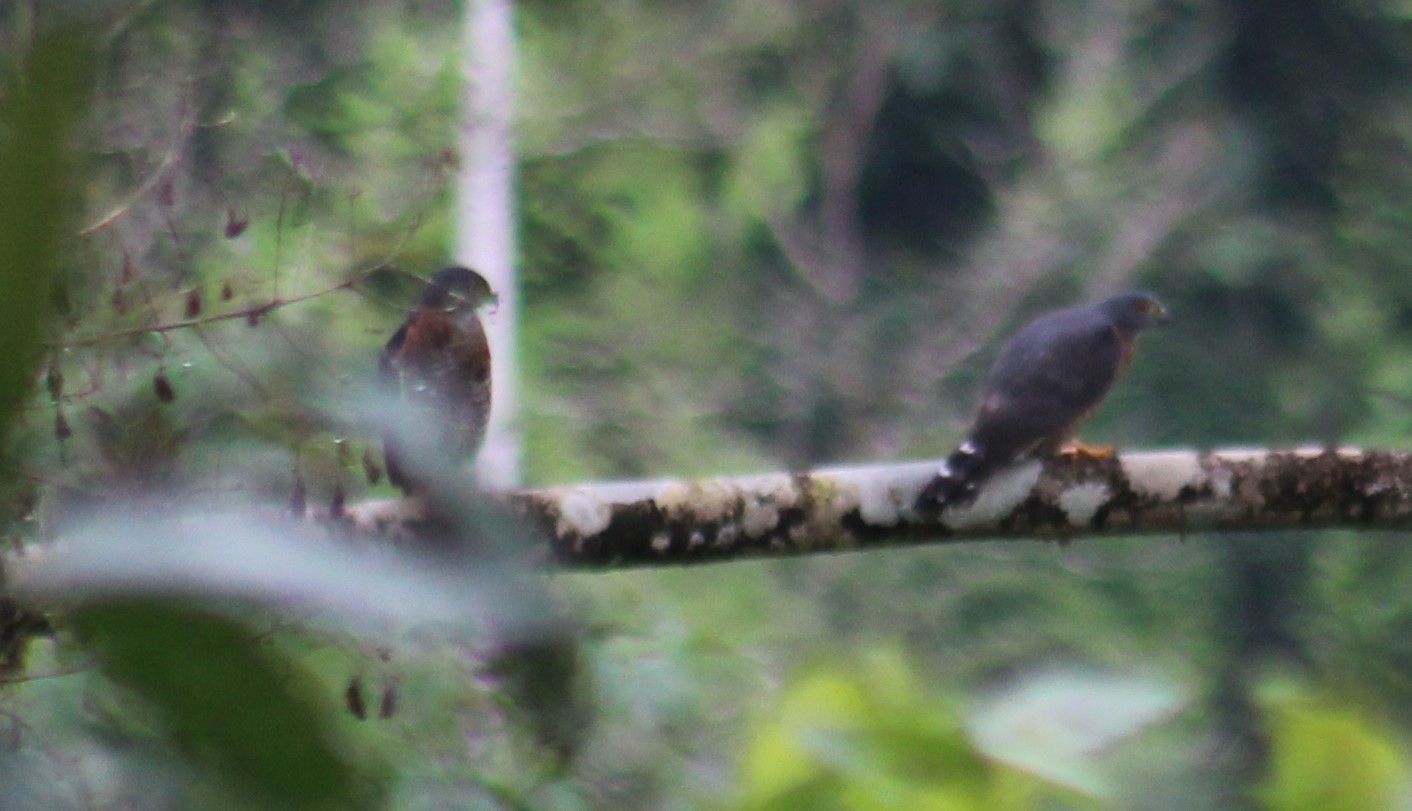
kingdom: Animalia
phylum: Chordata
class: Aves
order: Accipitriformes
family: Accipitridae
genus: Harpagus
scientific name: Harpagus bidentatus
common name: Double-toothed kite
